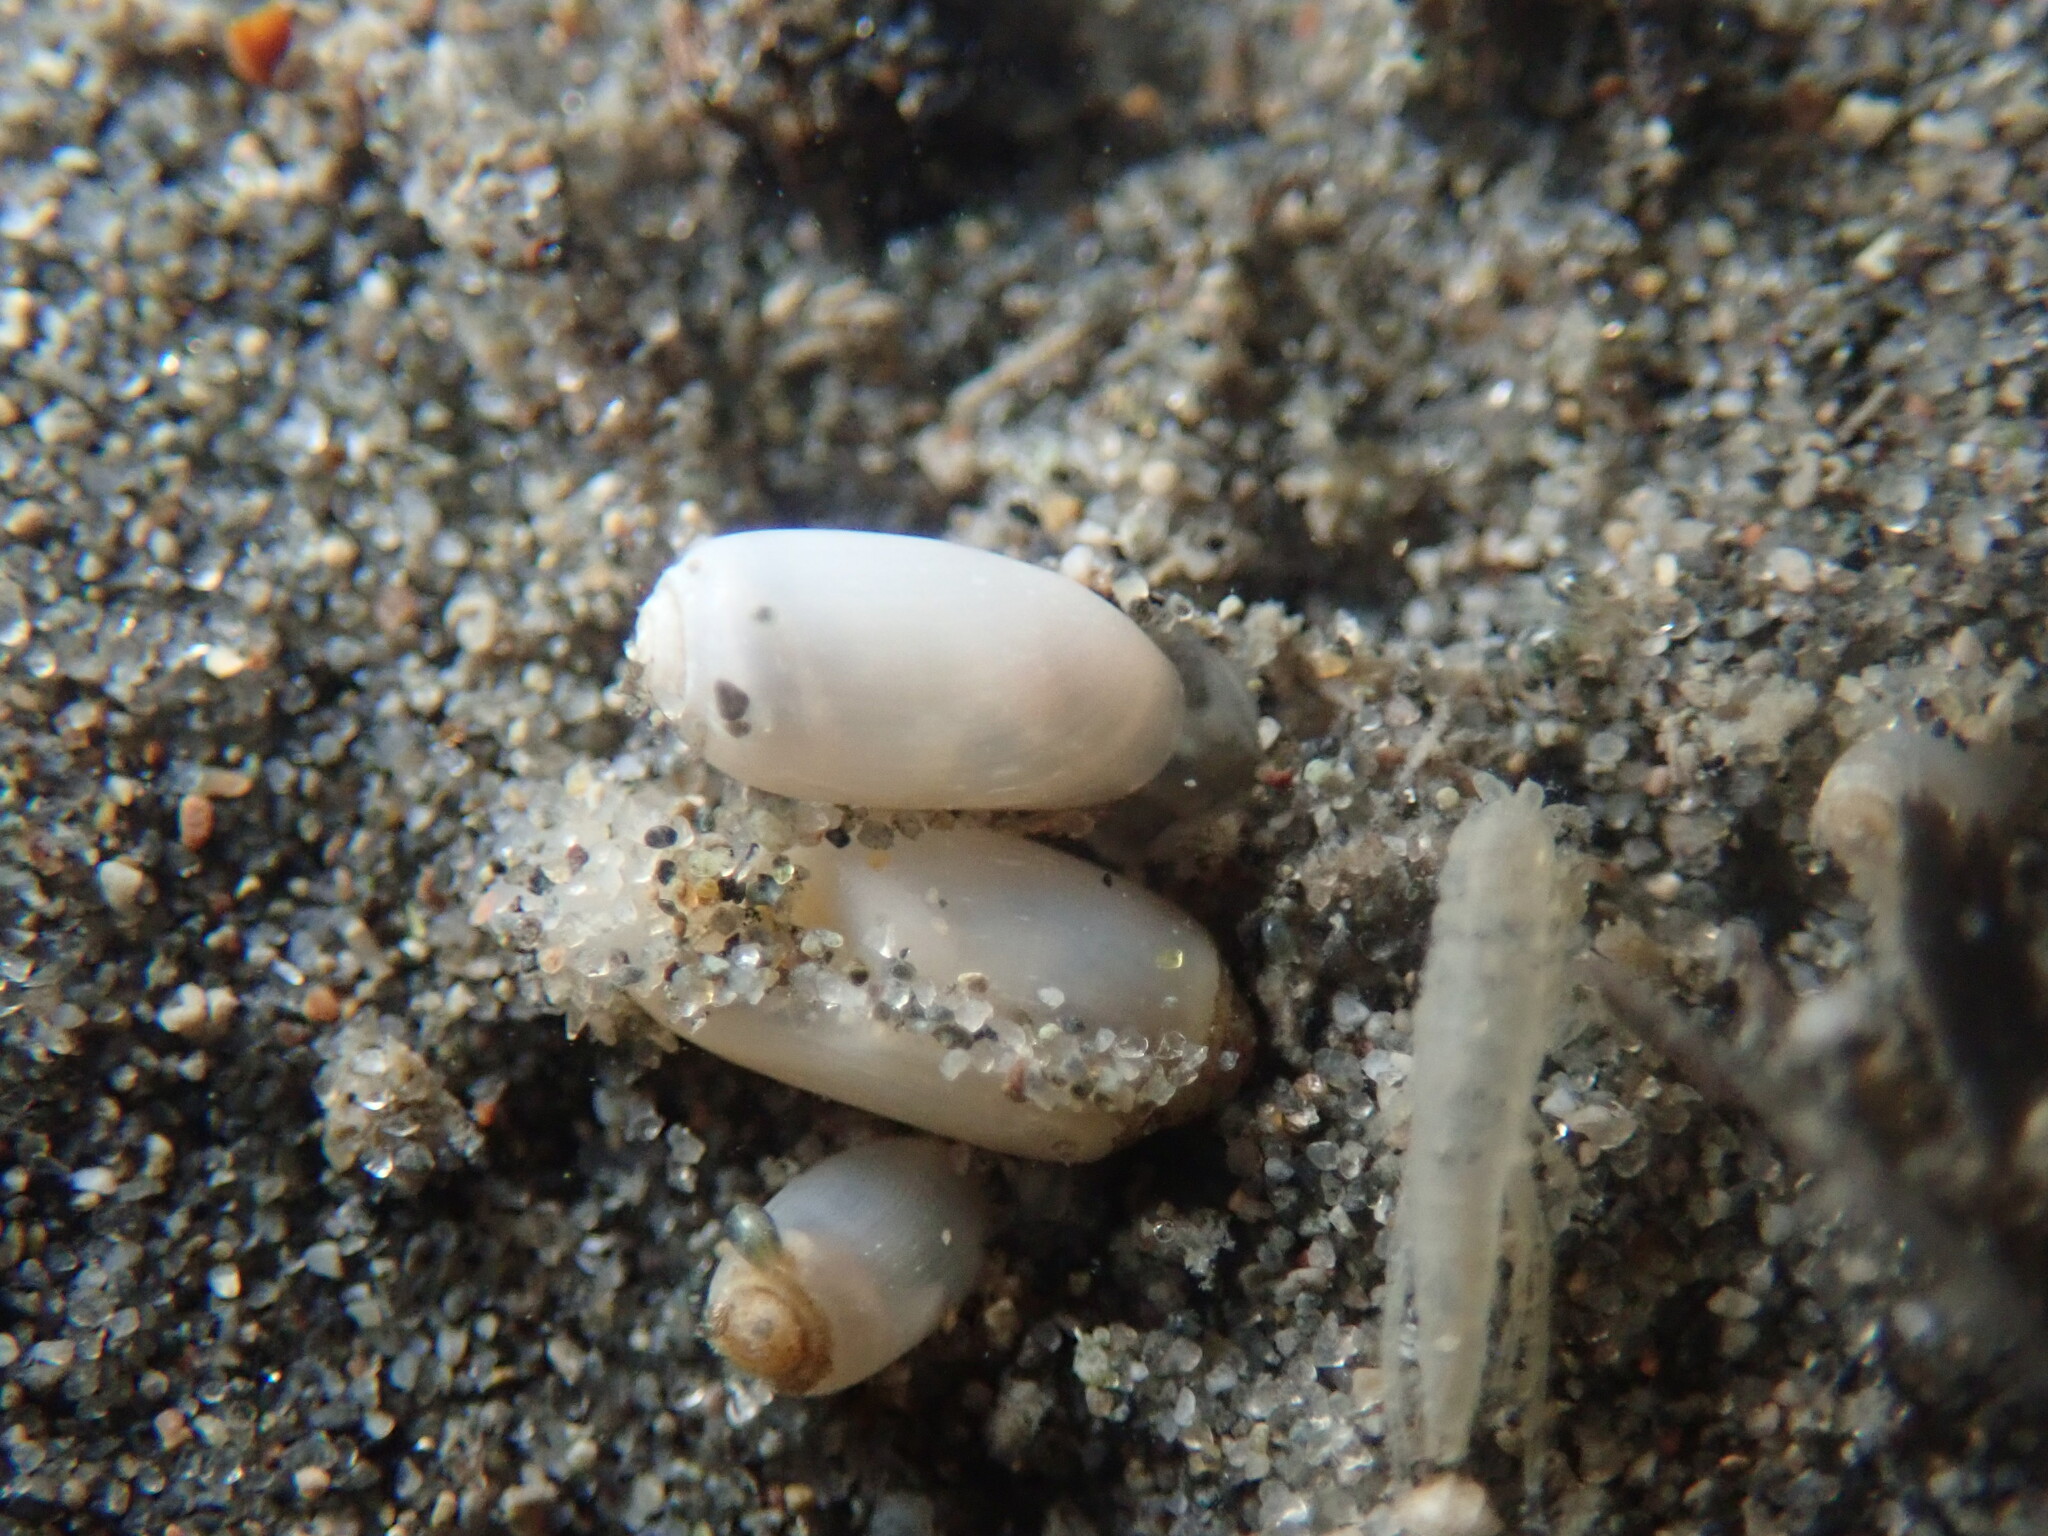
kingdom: Animalia
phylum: Mollusca
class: Gastropoda
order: Cephalaspidea
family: Tornatinidae
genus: Acteocina
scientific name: Acteocina inculta
